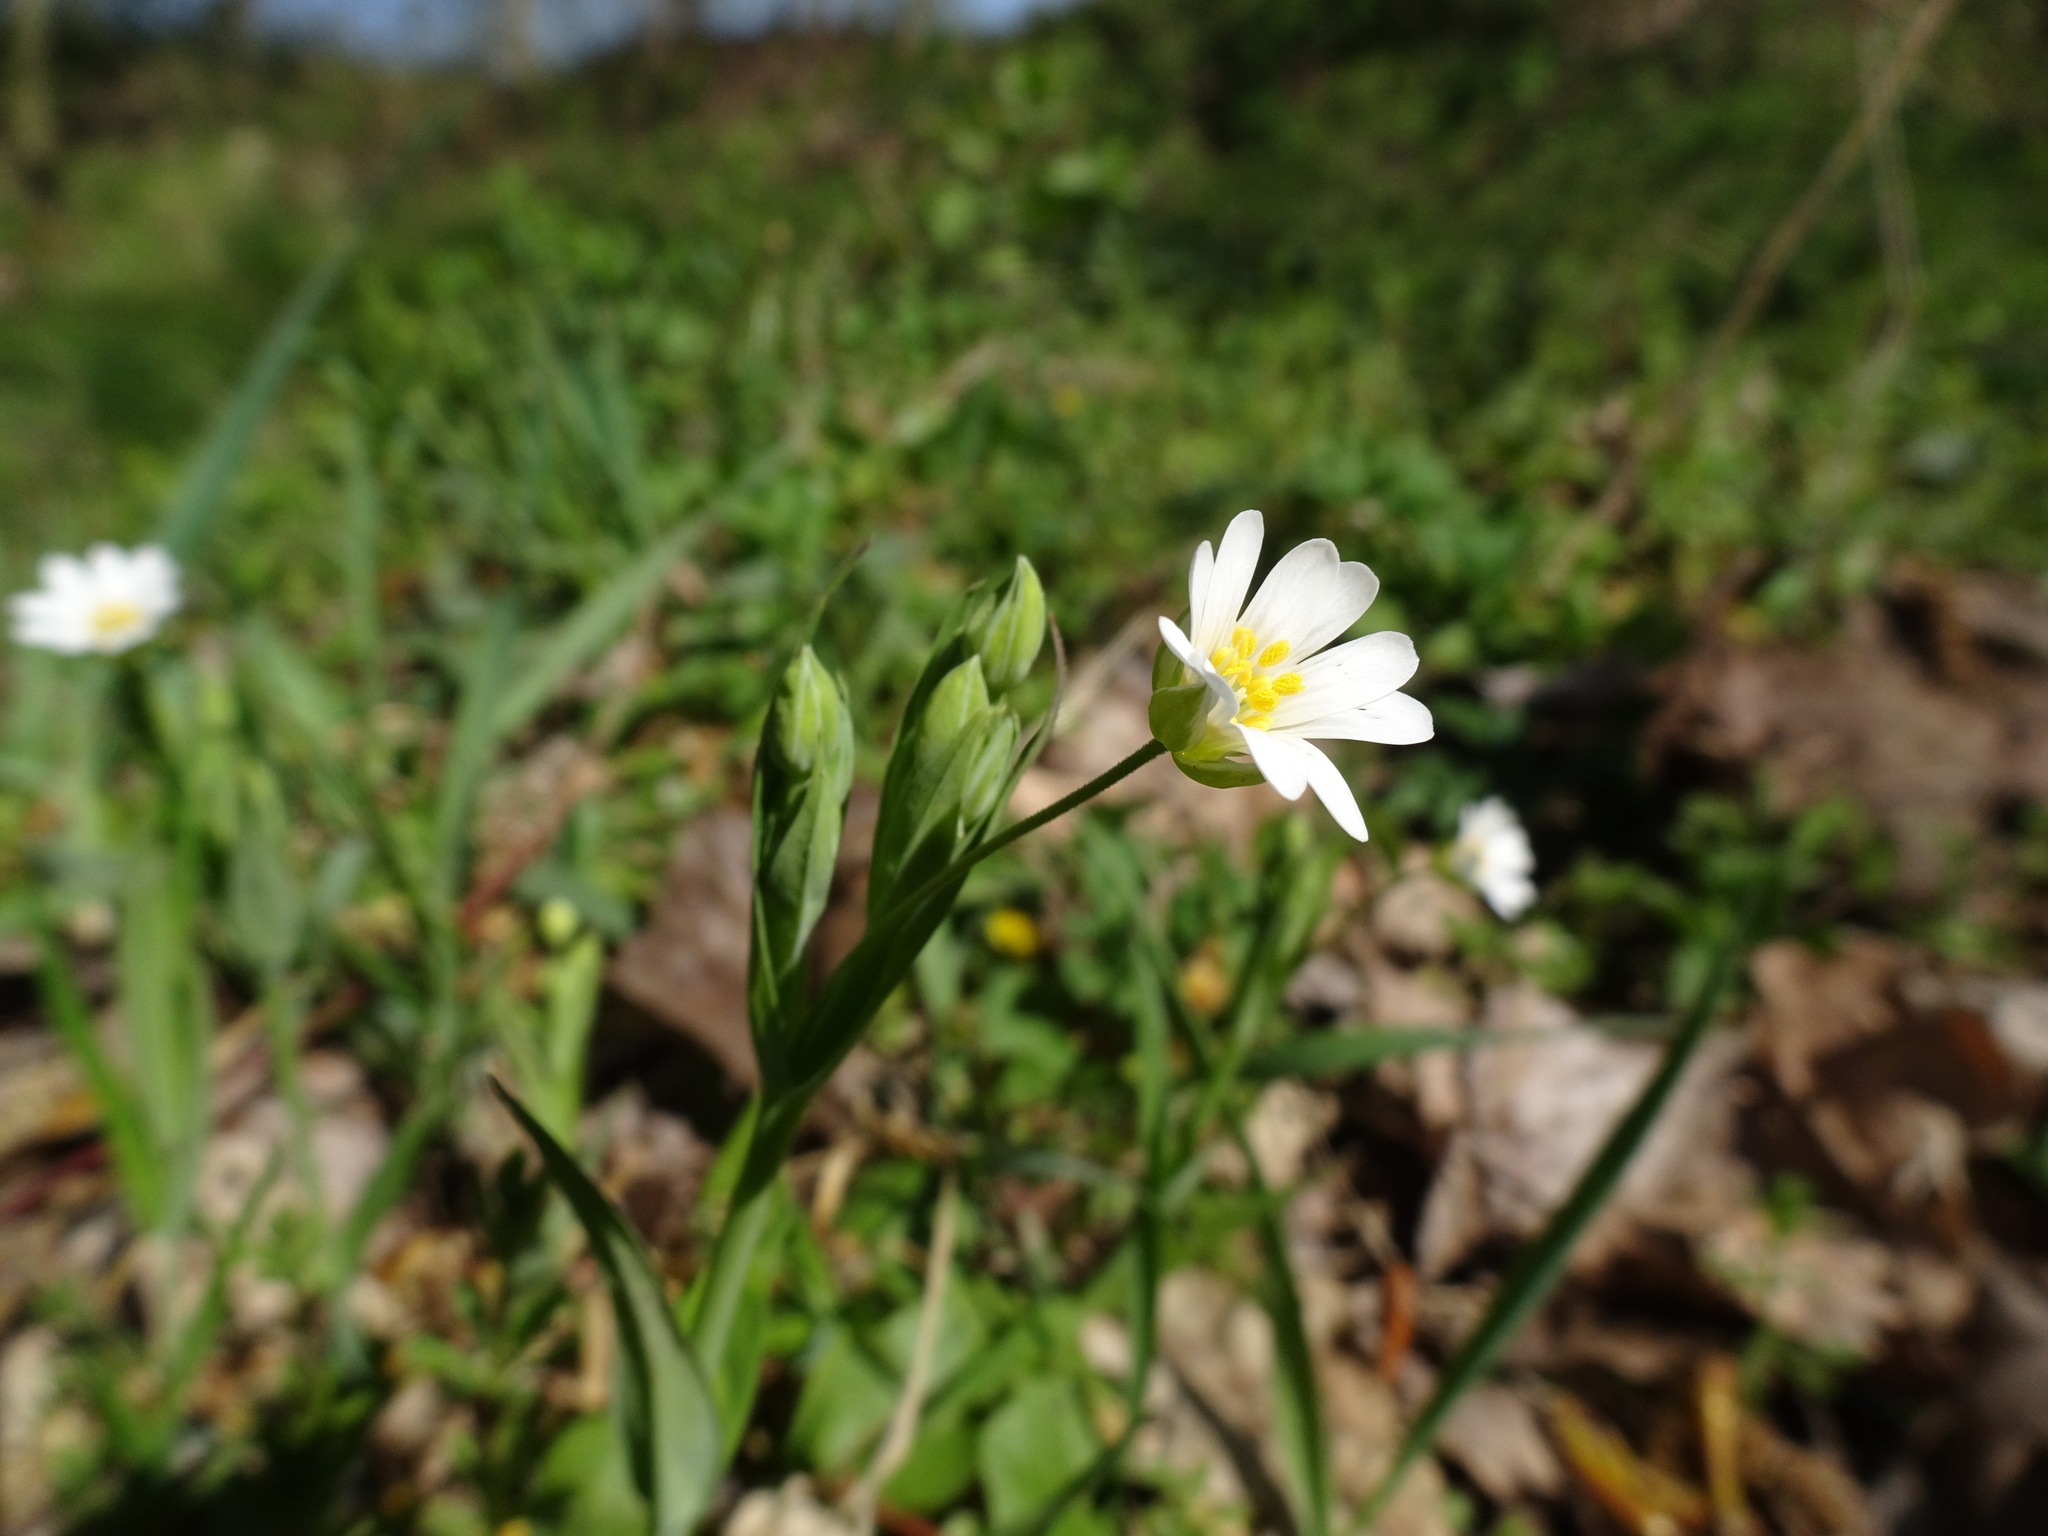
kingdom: Plantae
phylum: Tracheophyta
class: Magnoliopsida
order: Caryophyllales
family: Caryophyllaceae
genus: Rabelera
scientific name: Rabelera holostea
